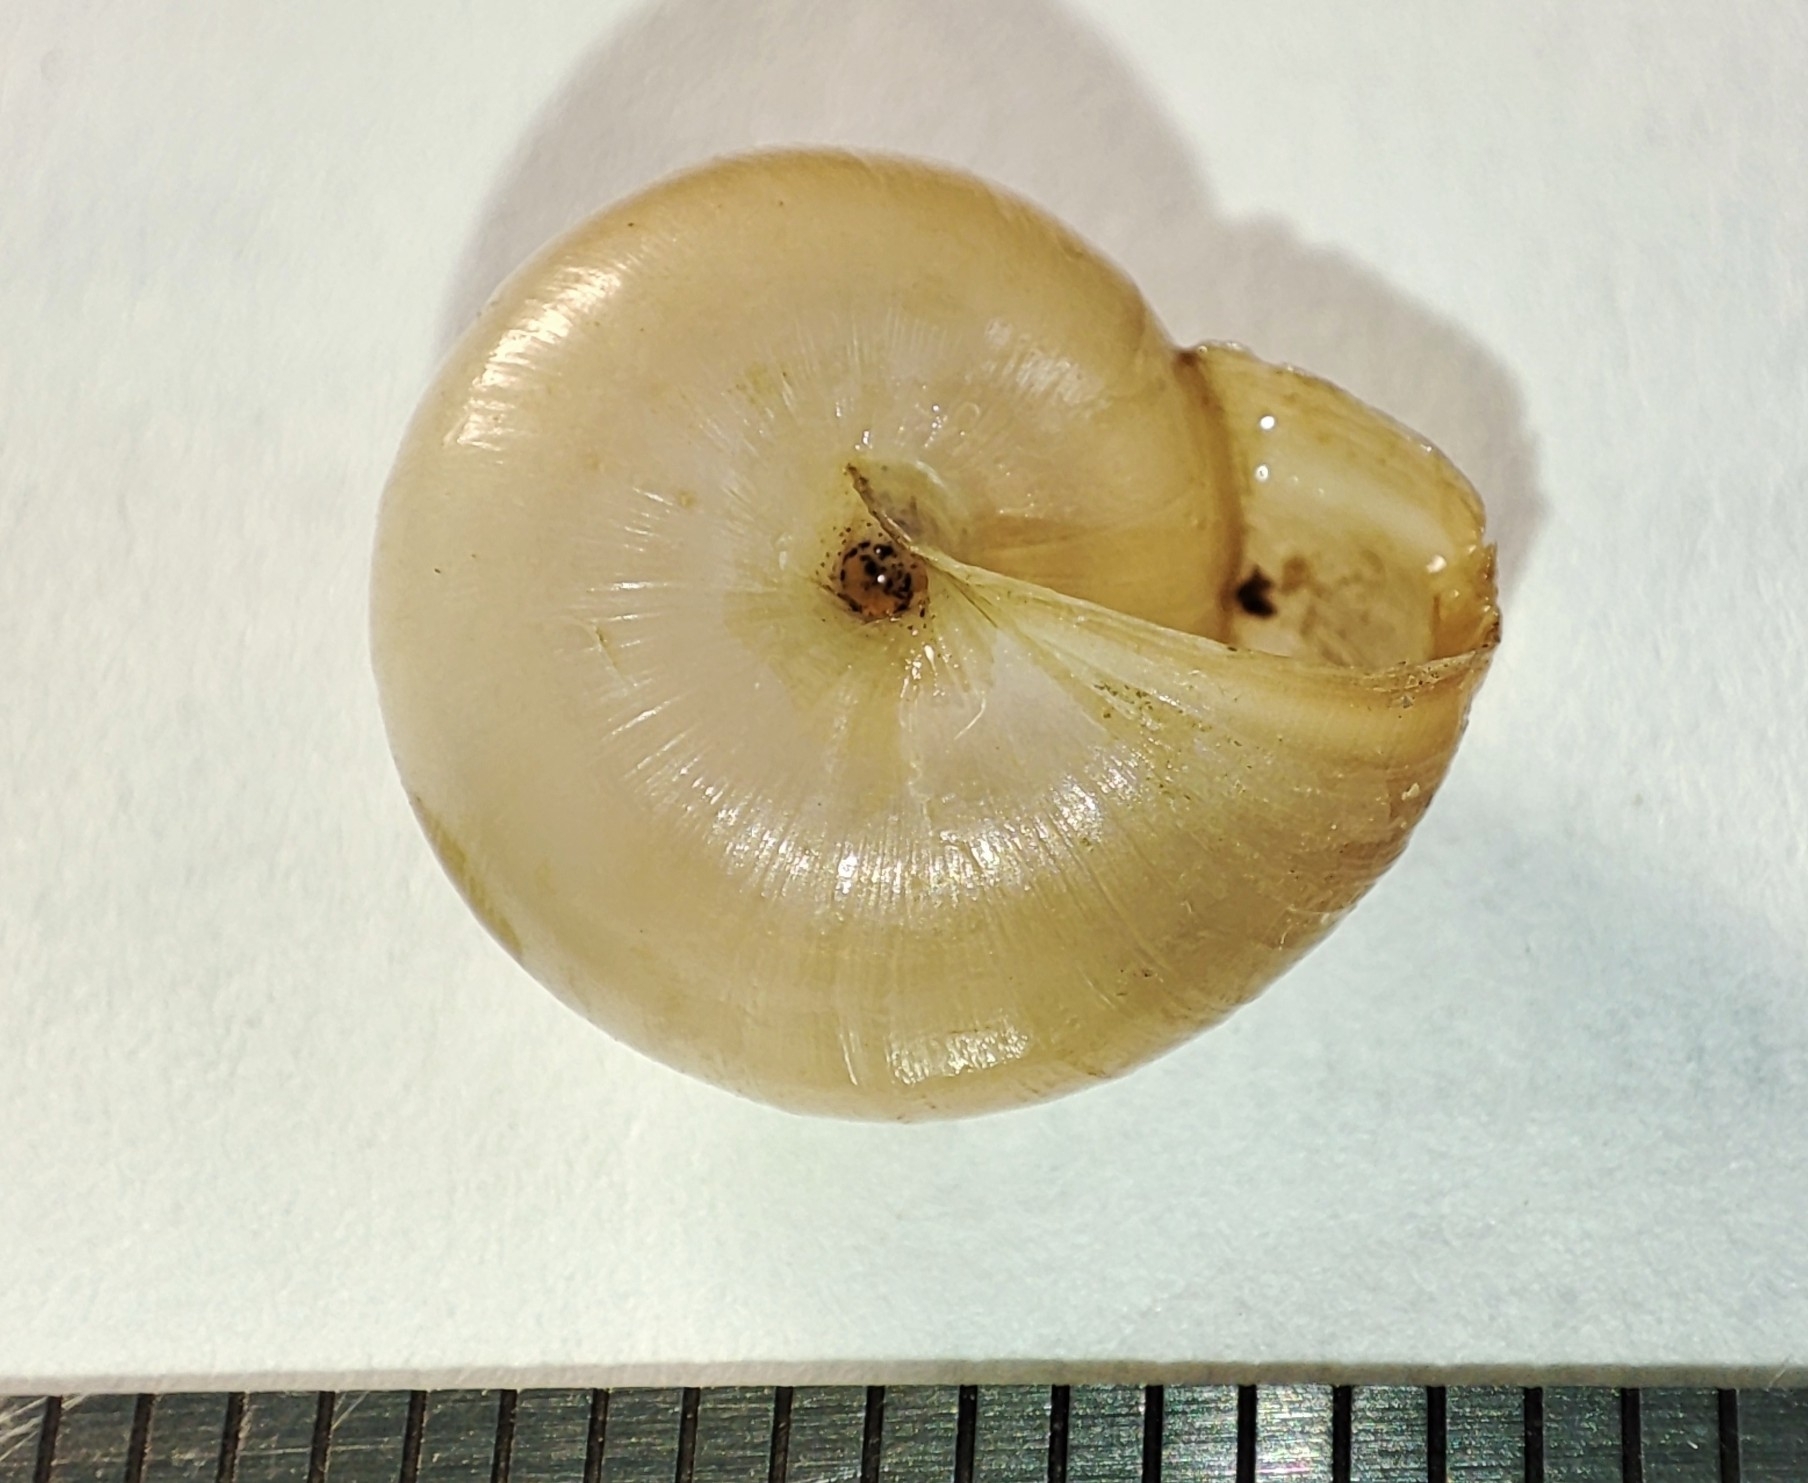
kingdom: Animalia
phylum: Mollusca
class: Gastropoda
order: Stylommatophora
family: Hygromiidae
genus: Monacha
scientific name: Monacha cartusiana
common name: Carthusian snail
